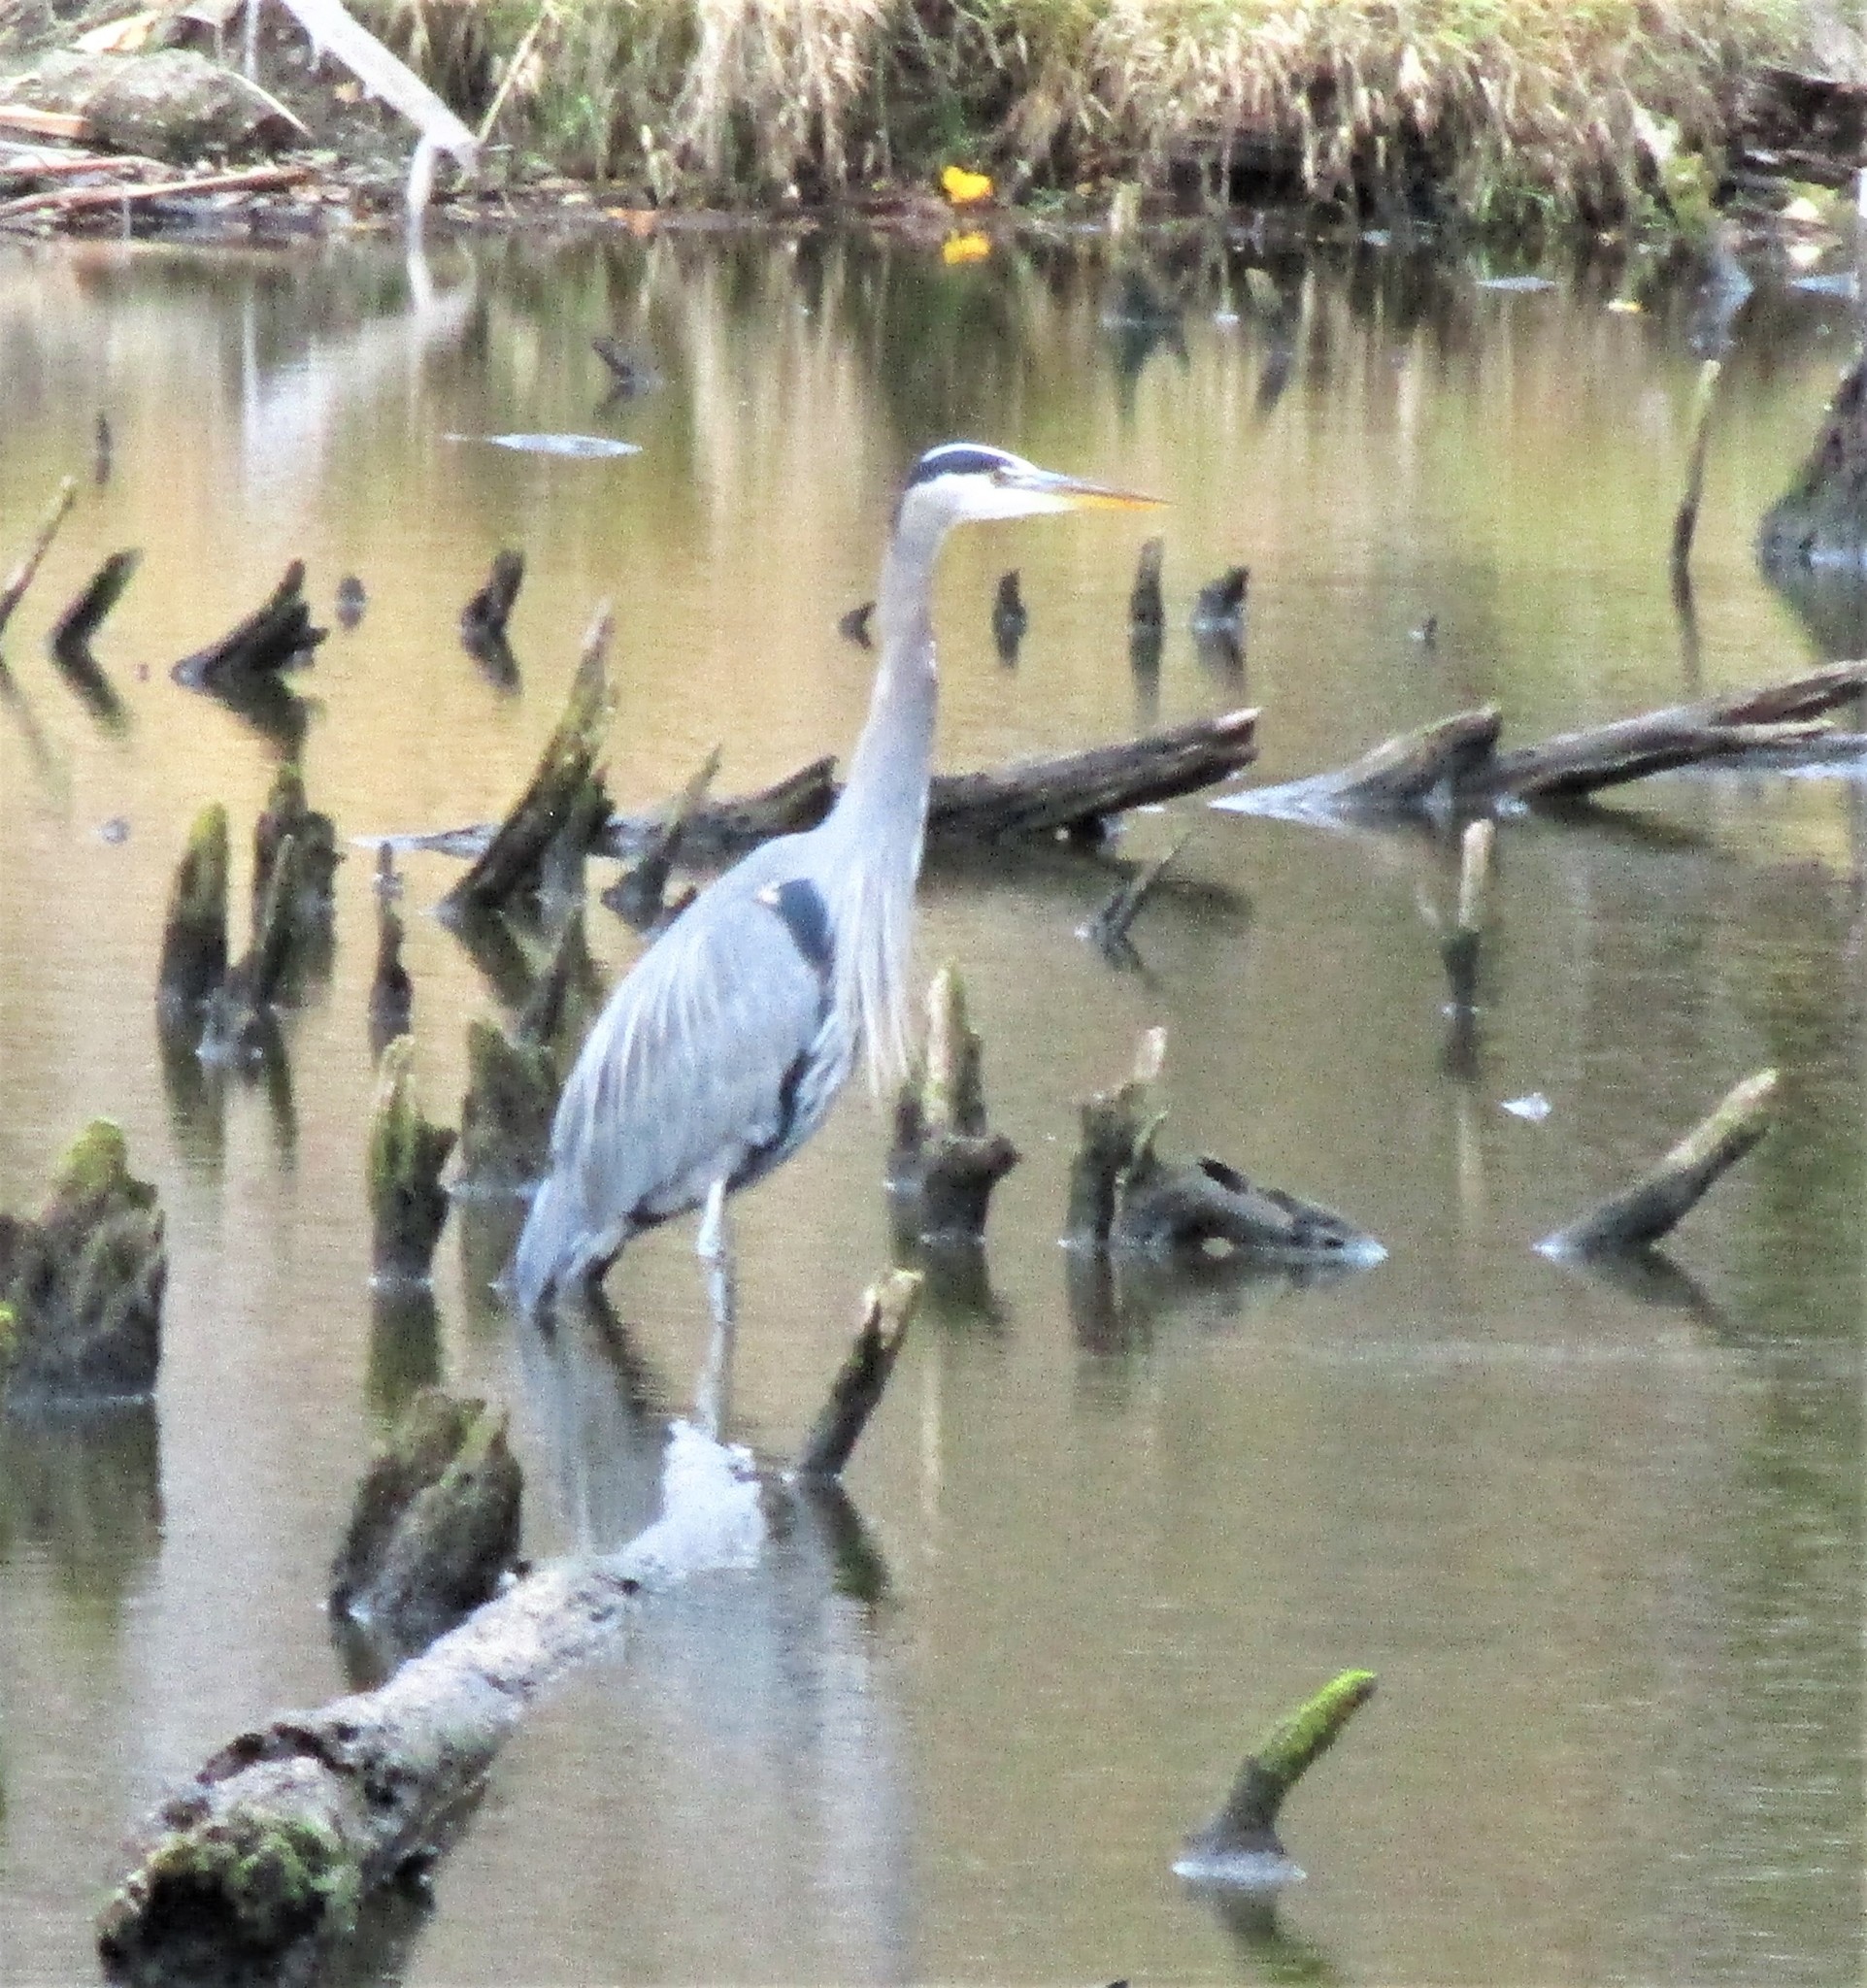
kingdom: Animalia
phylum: Chordata
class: Aves
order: Pelecaniformes
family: Ardeidae
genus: Ardea
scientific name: Ardea herodias
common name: Great blue heron
